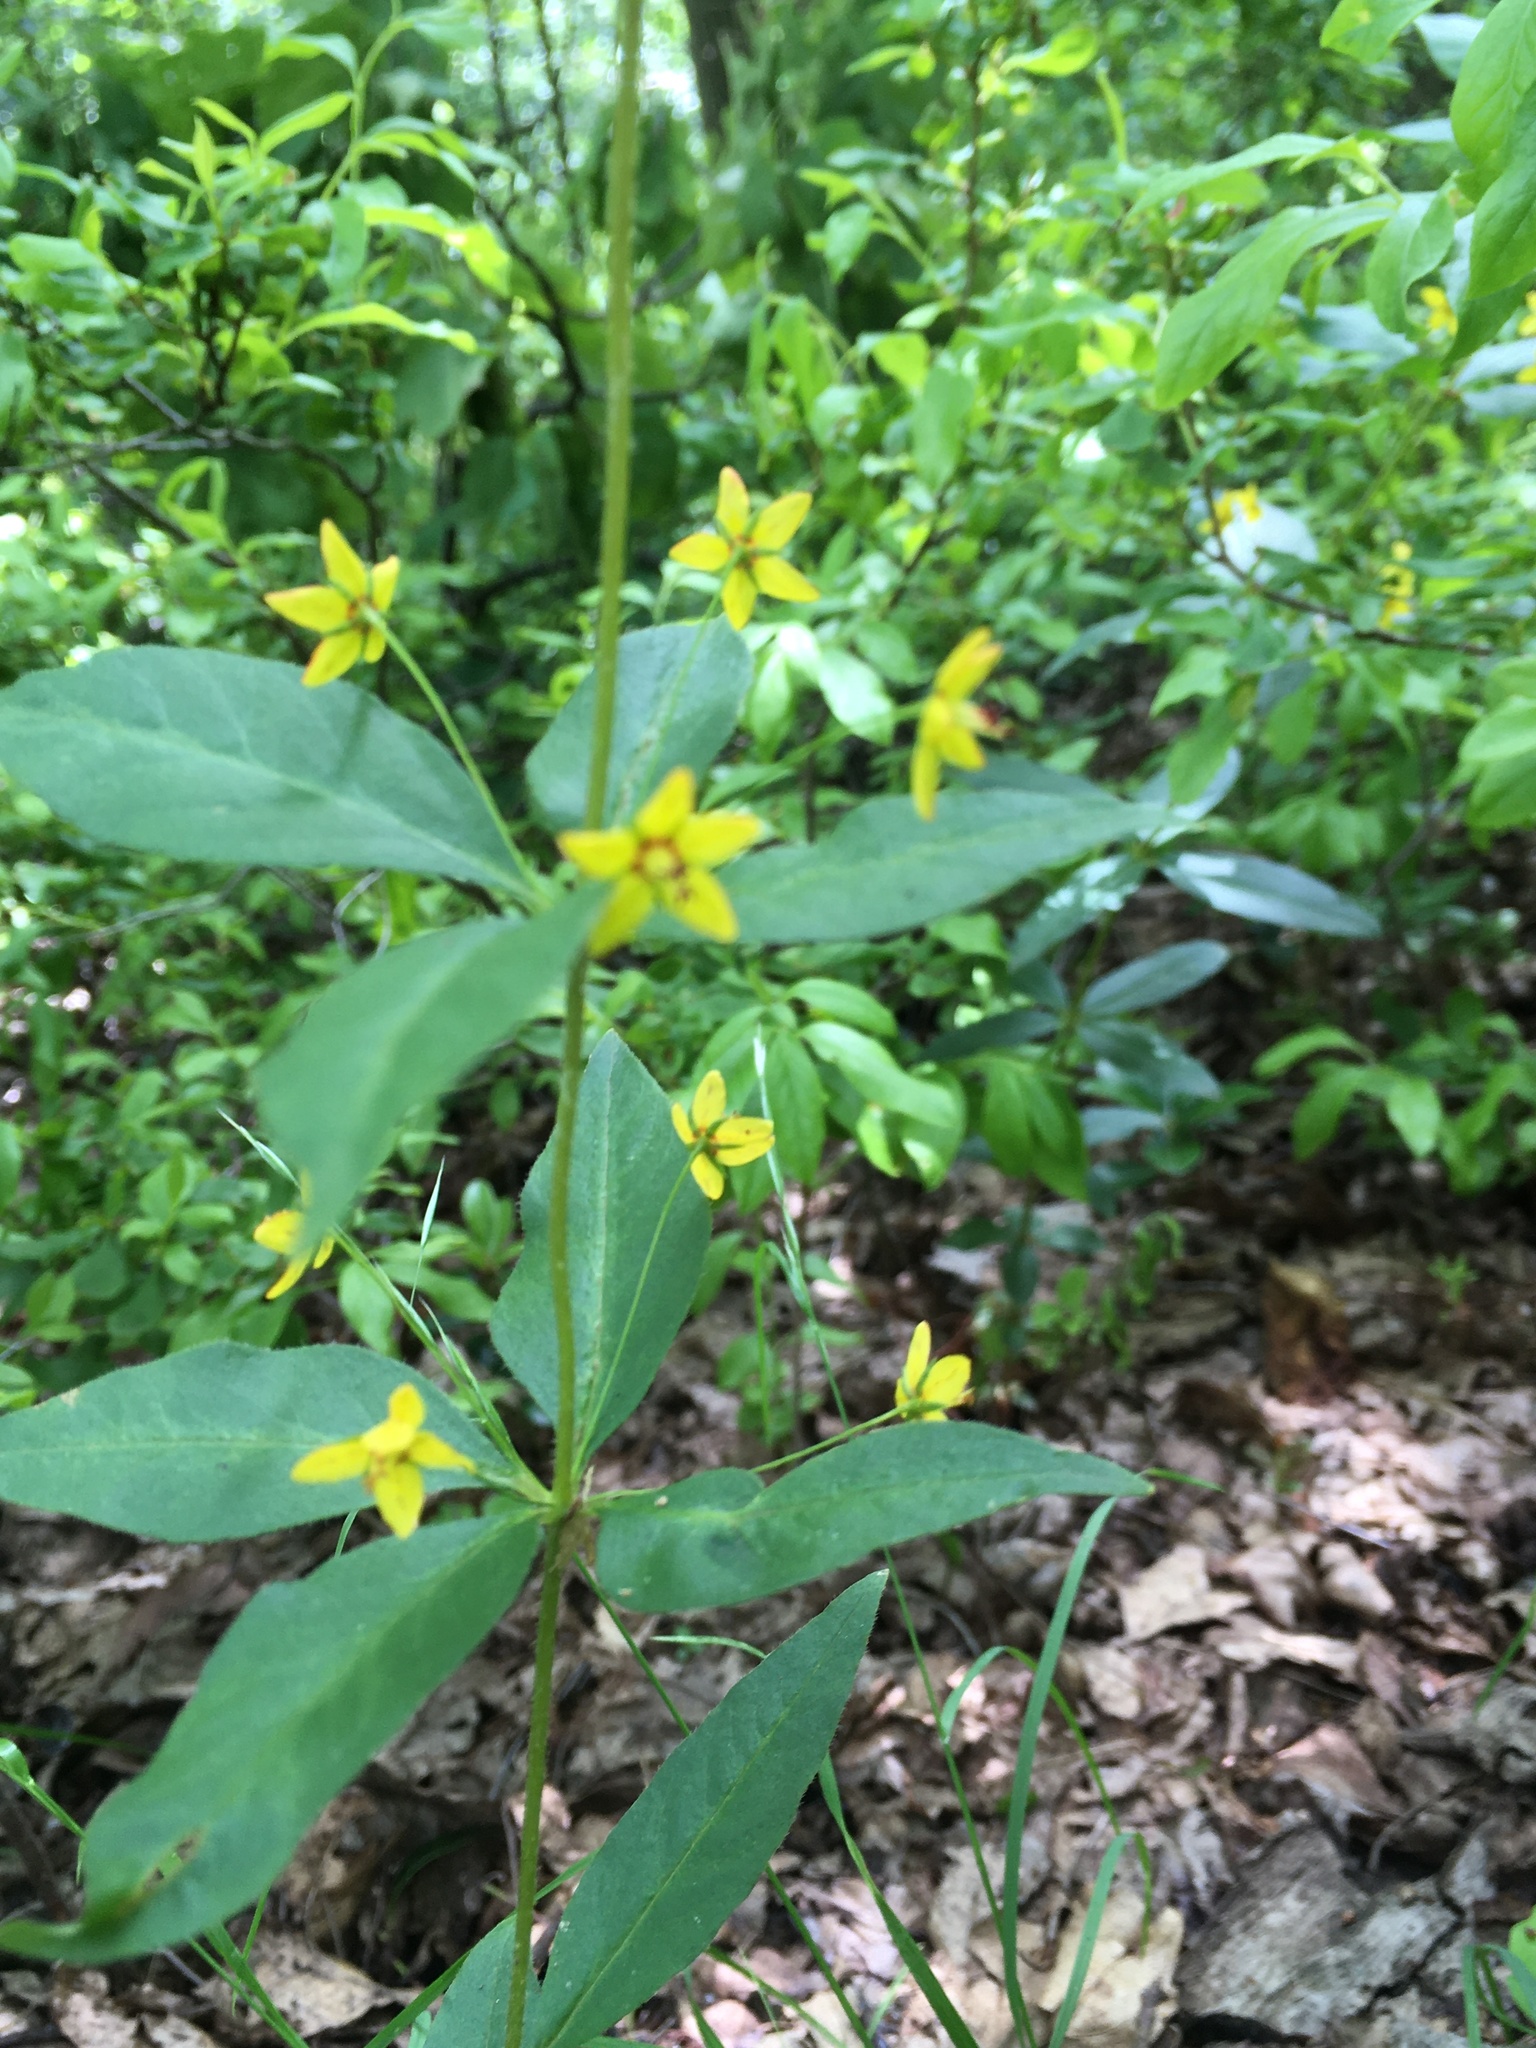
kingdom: Plantae
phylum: Tracheophyta
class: Magnoliopsida
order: Ericales
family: Primulaceae
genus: Lysimachia
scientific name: Lysimachia quadrifolia
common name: Whorled loosestrife
